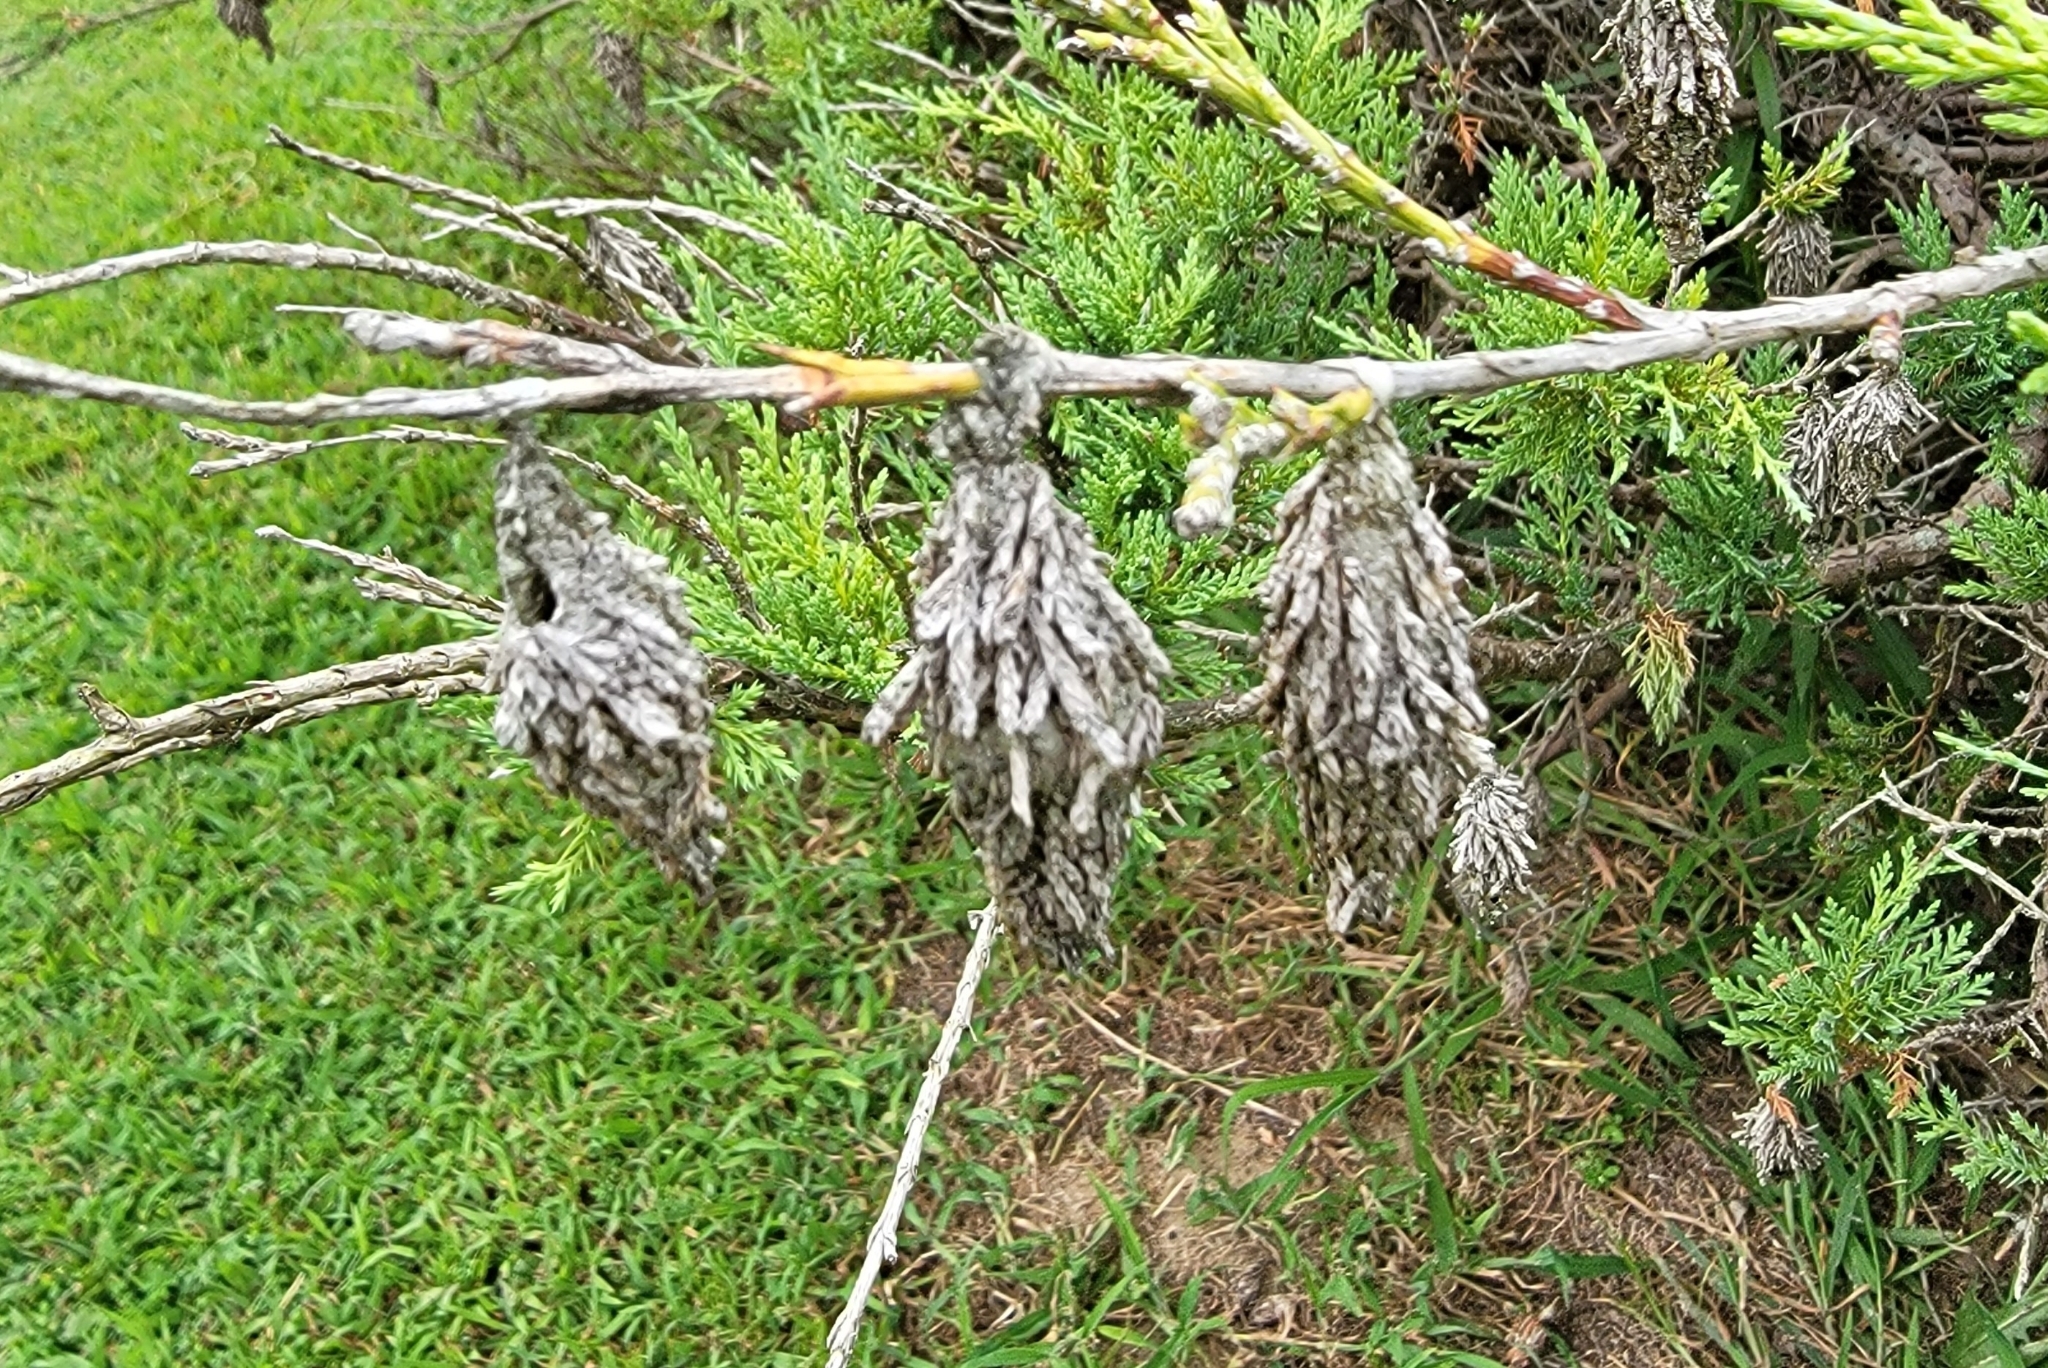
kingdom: Animalia
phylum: Arthropoda
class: Insecta
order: Lepidoptera
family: Psychidae
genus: Thyridopteryx
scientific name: Thyridopteryx ephemeraeformis
